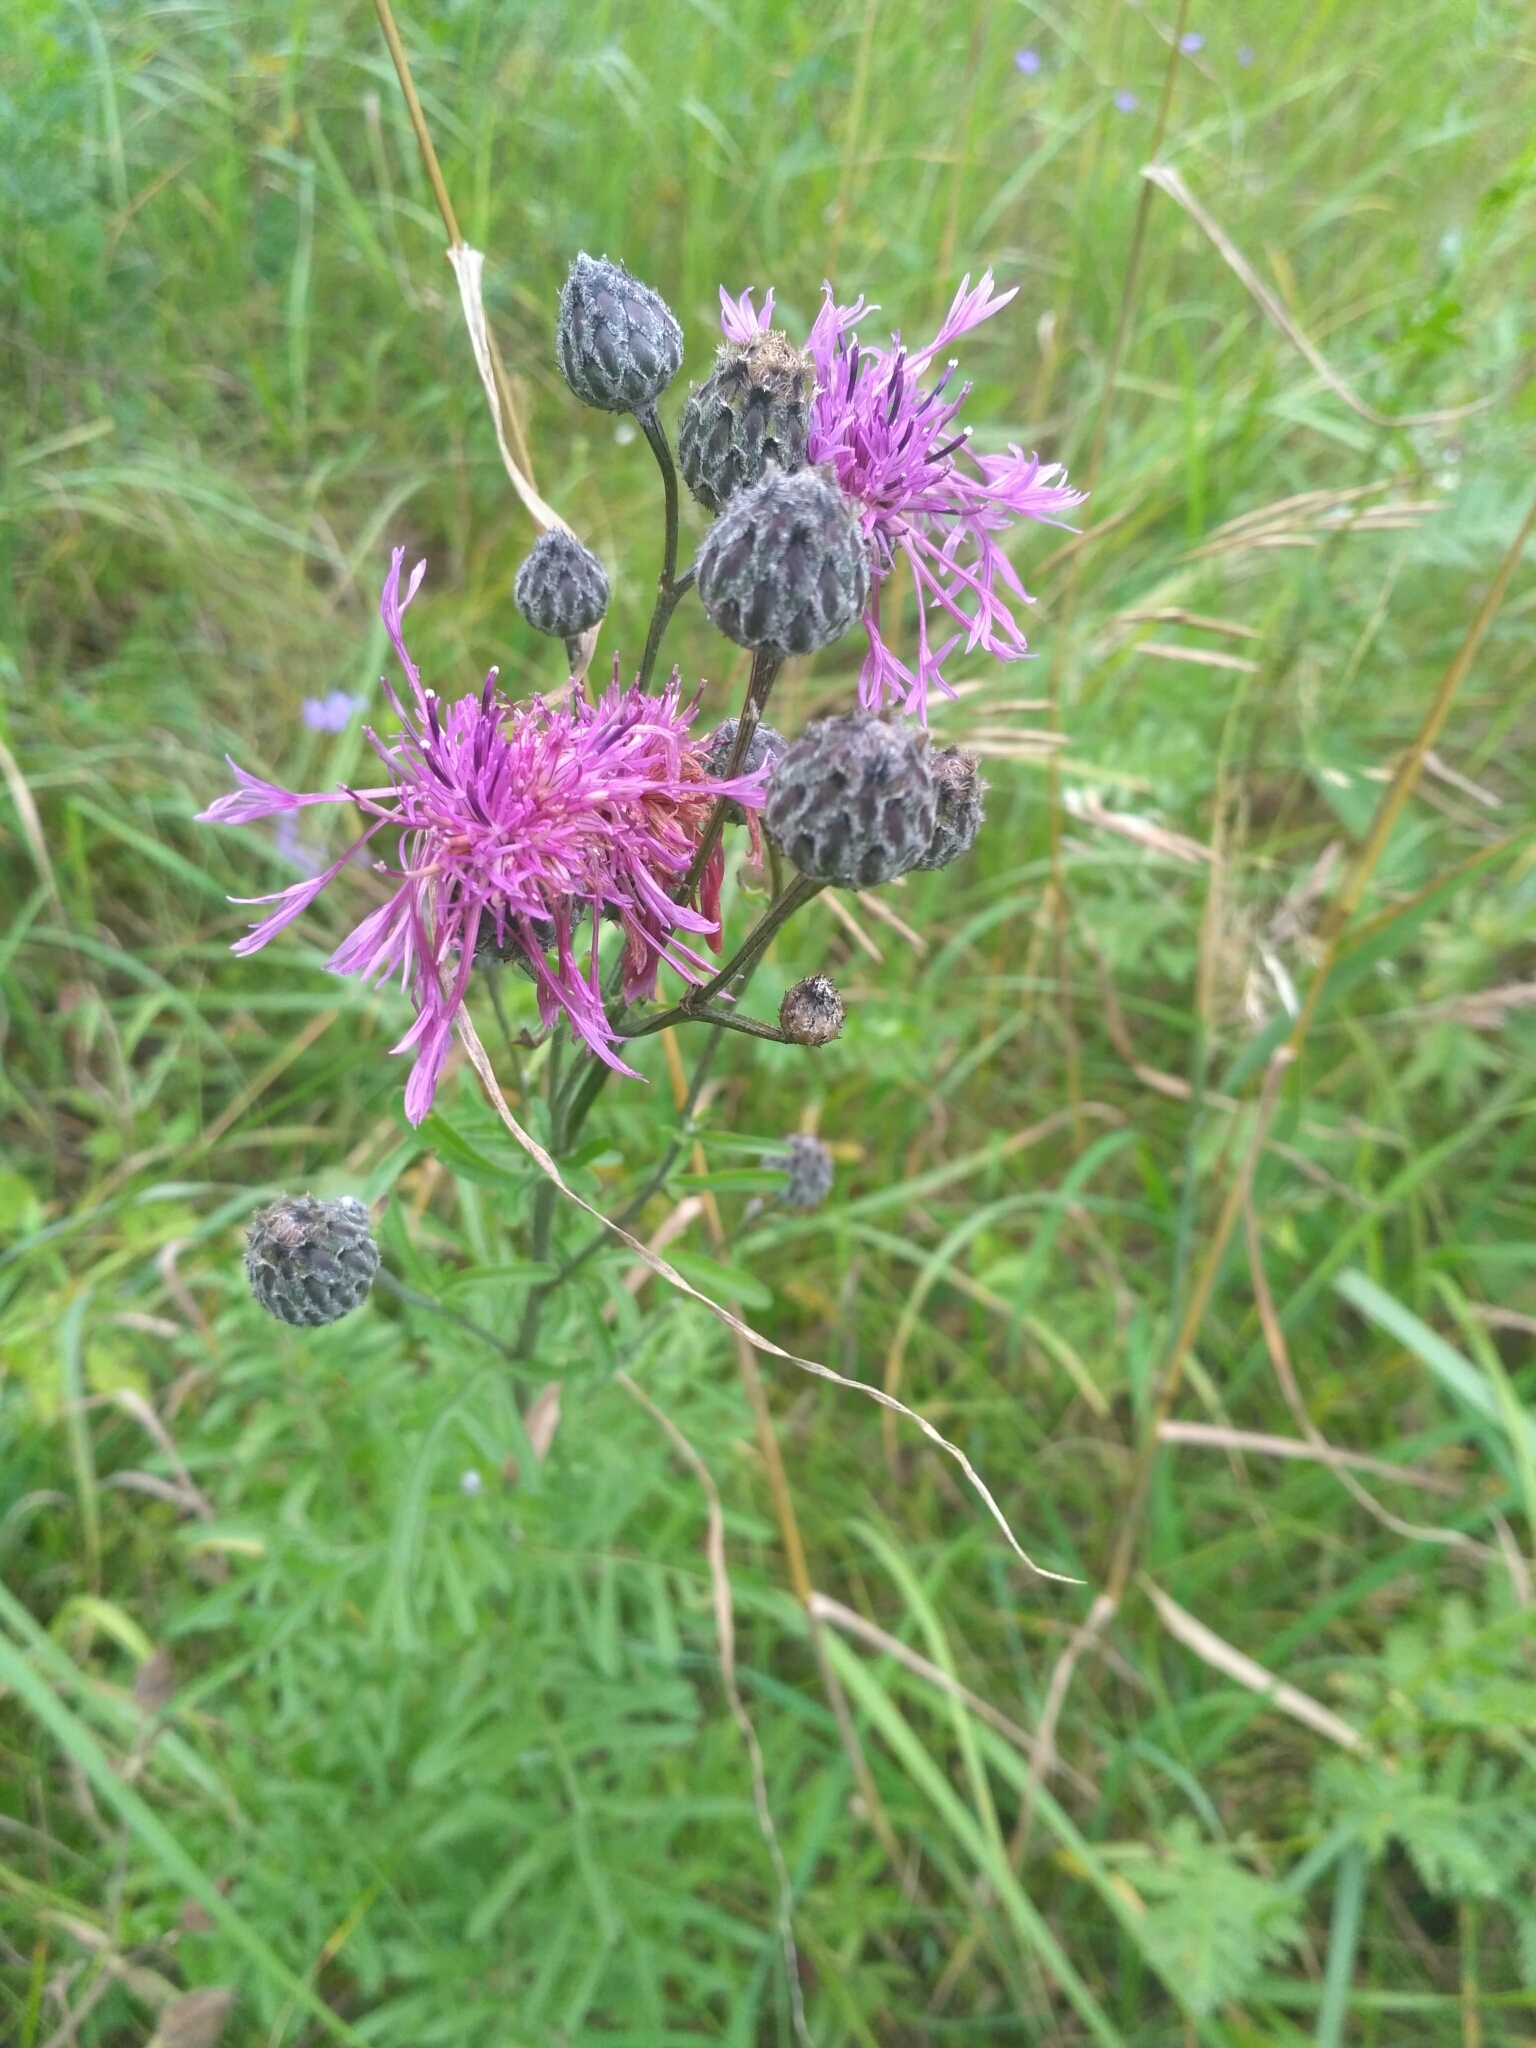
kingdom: Plantae
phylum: Tracheophyta
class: Magnoliopsida
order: Asterales
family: Asteraceae
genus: Centaurea
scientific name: Centaurea scabiosa
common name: Greater knapweed
